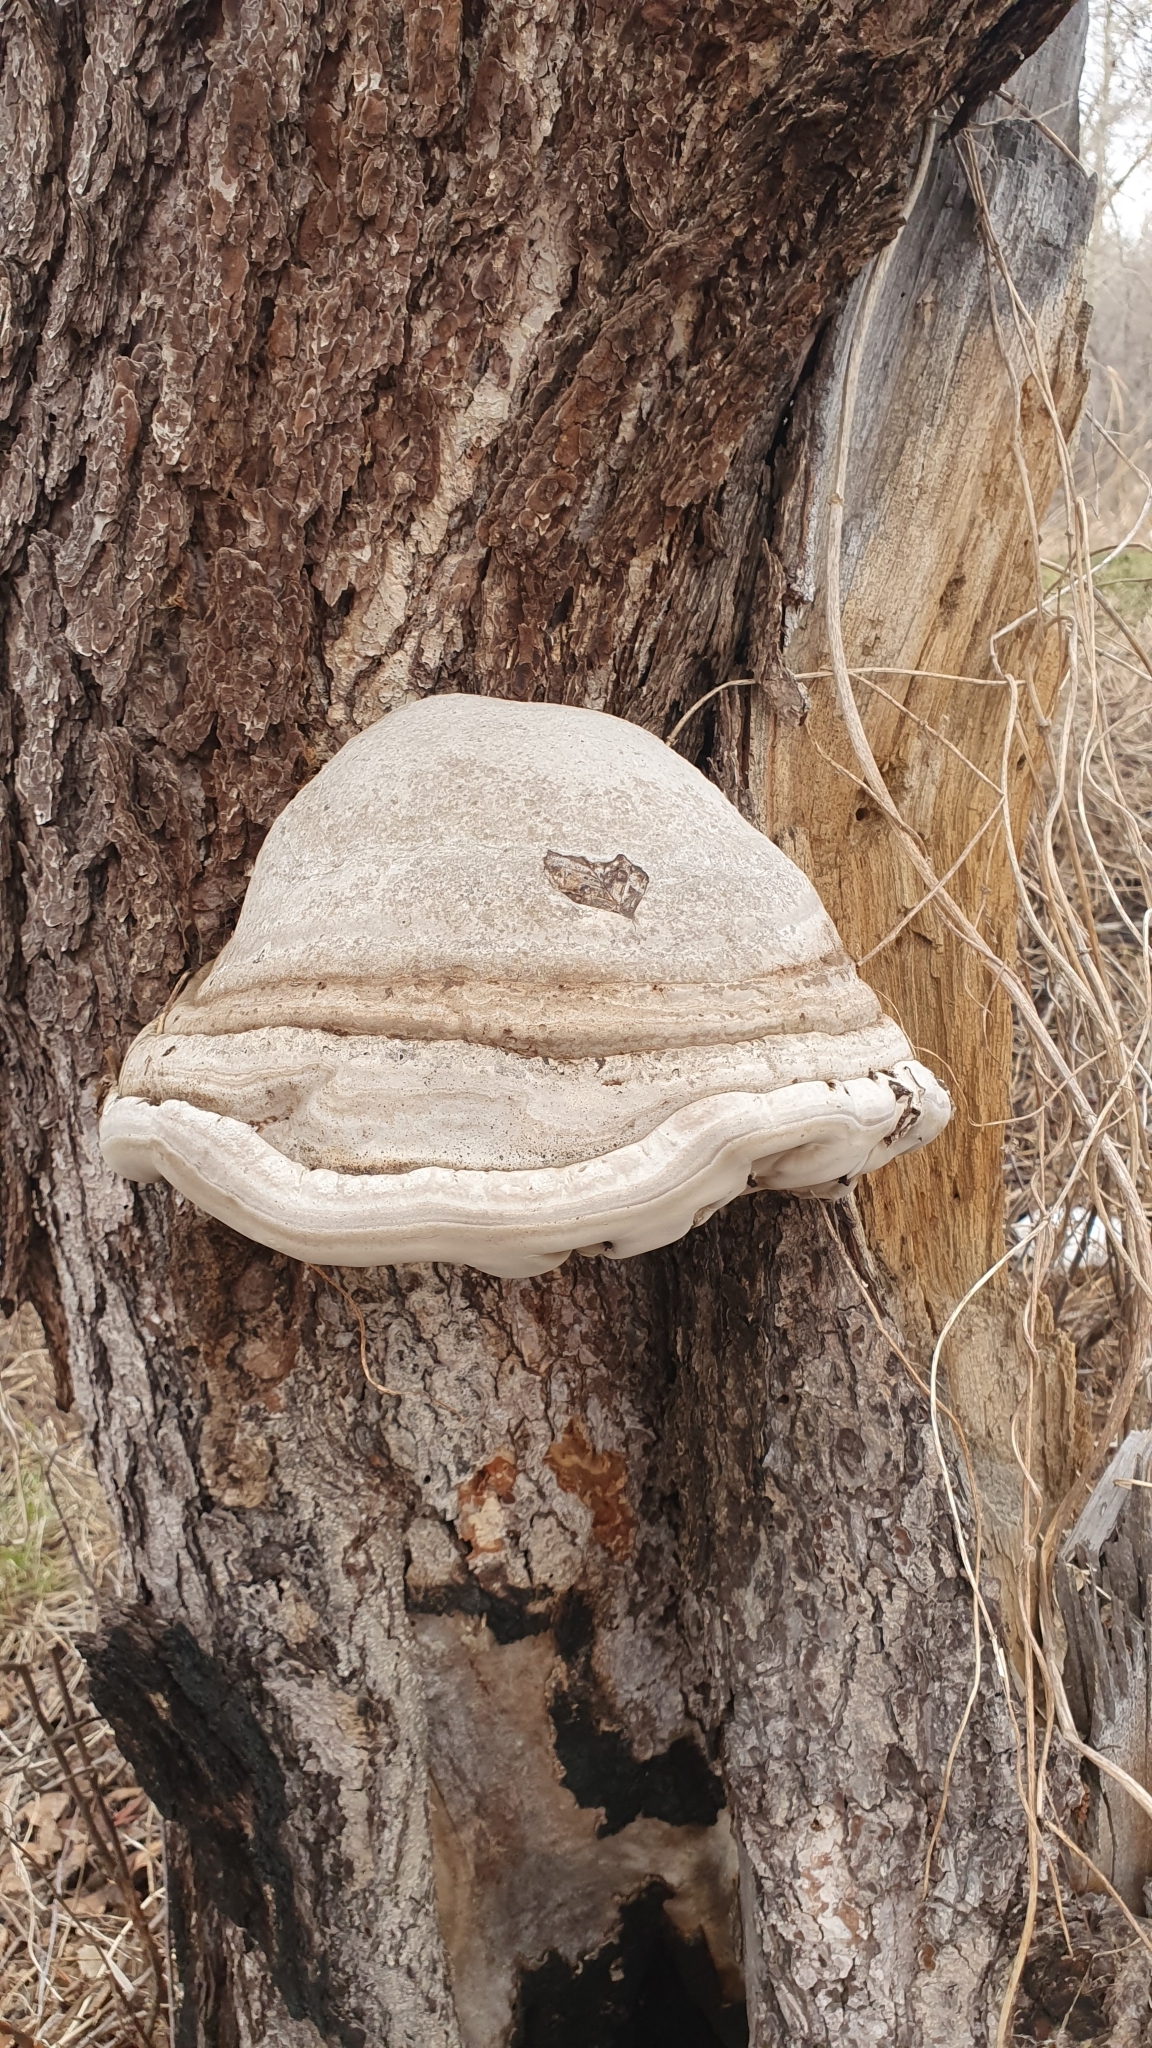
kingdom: Fungi
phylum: Basidiomycota
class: Agaricomycetes
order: Polyporales
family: Polyporaceae
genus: Fomes
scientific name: Fomes fomentarius
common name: Hoof fungus
